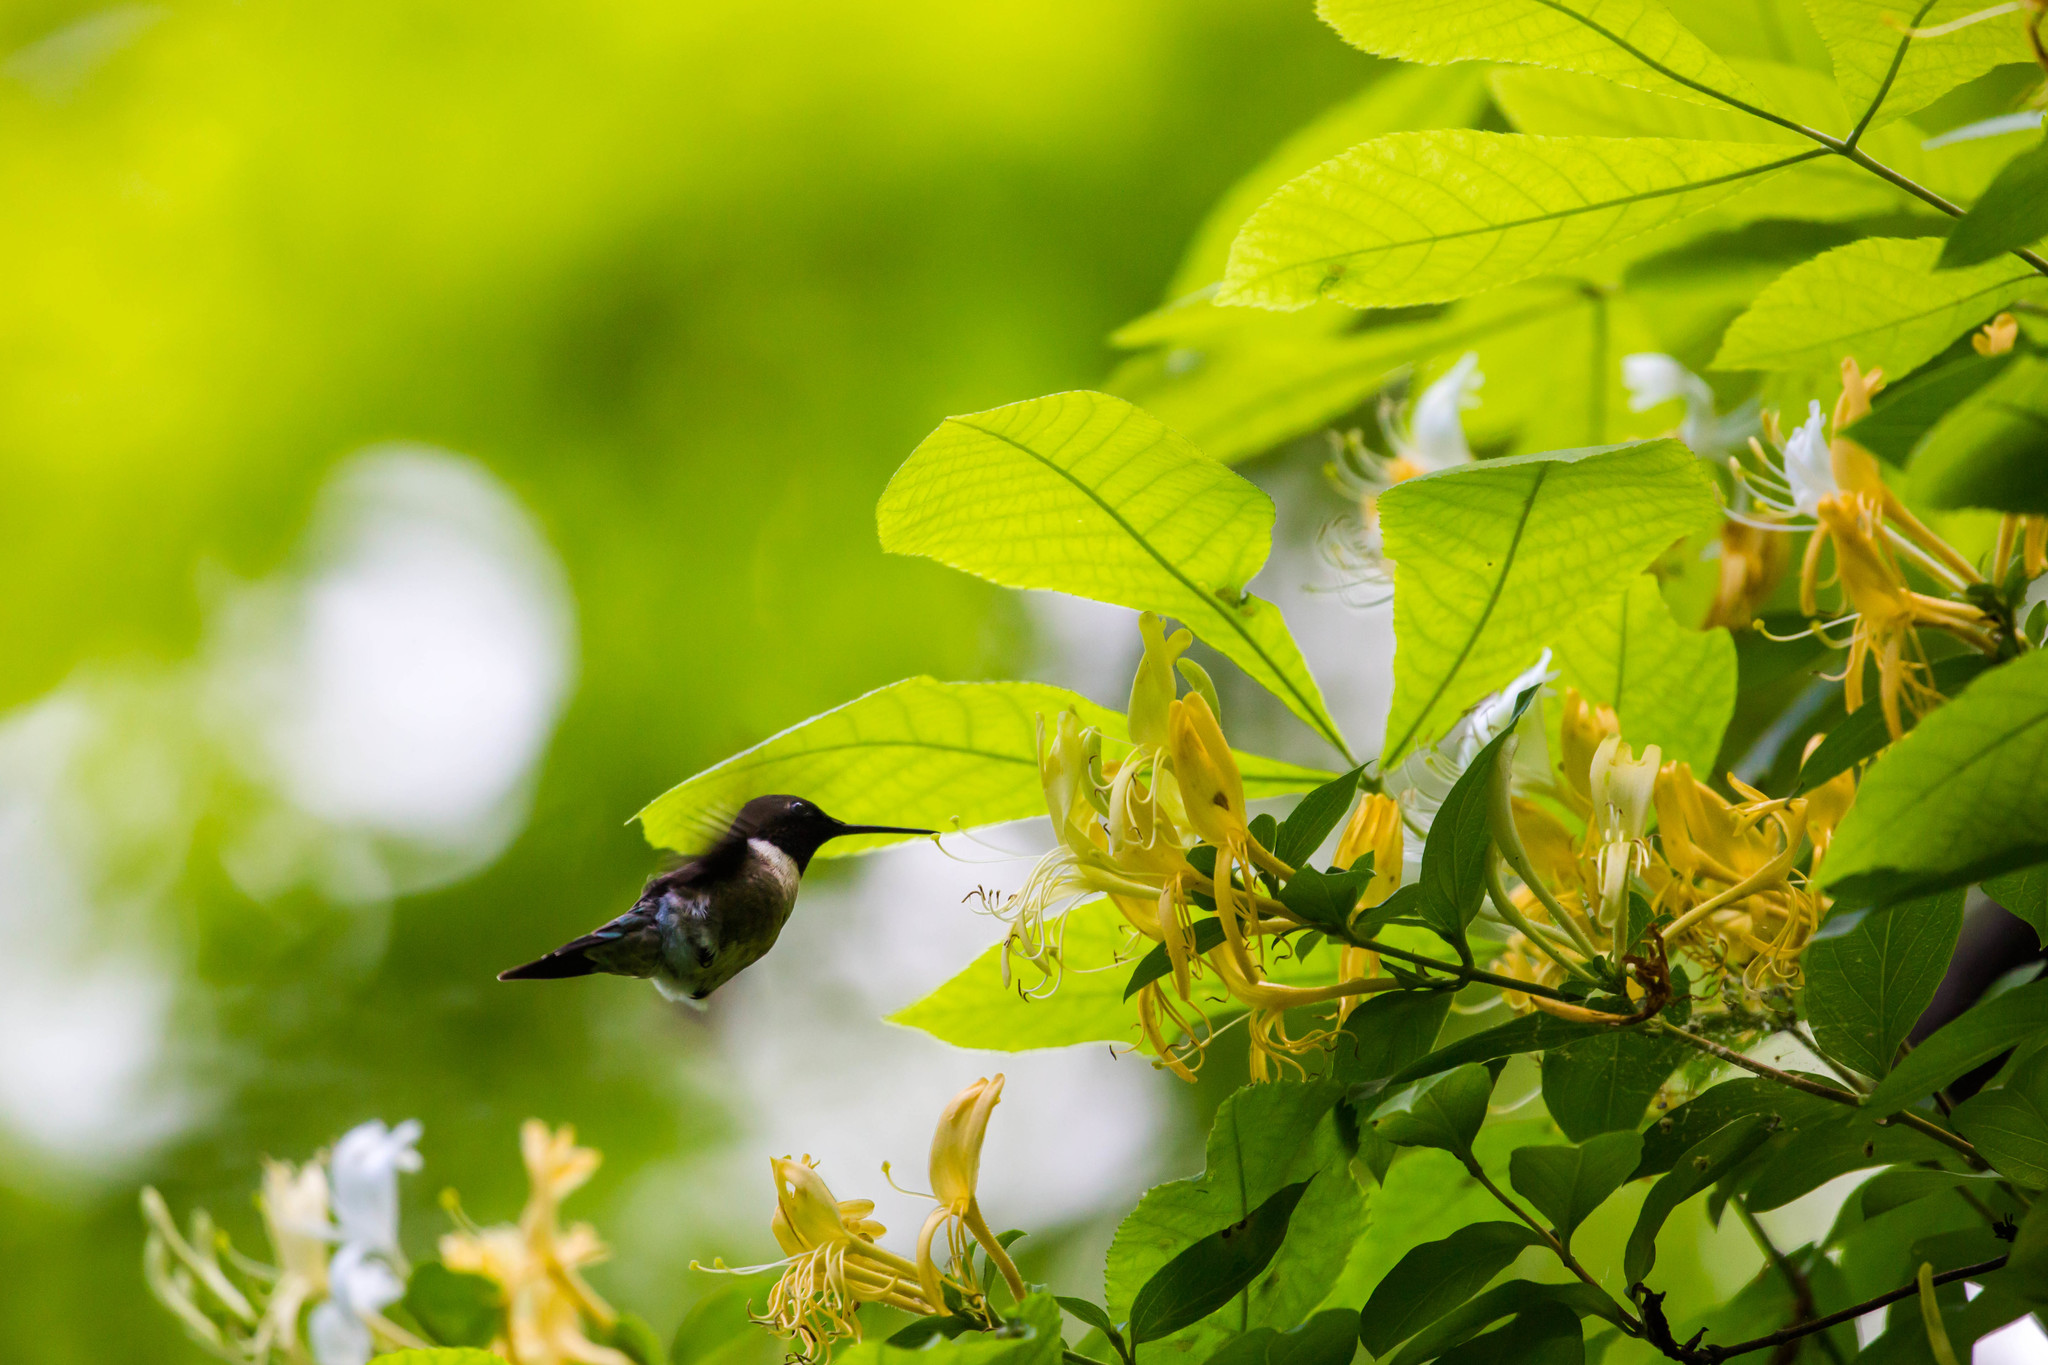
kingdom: Animalia
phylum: Chordata
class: Aves
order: Apodiformes
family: Trochilidae
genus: Archilochus
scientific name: Archilochus colubris
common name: Ruby-throated hummingbird
